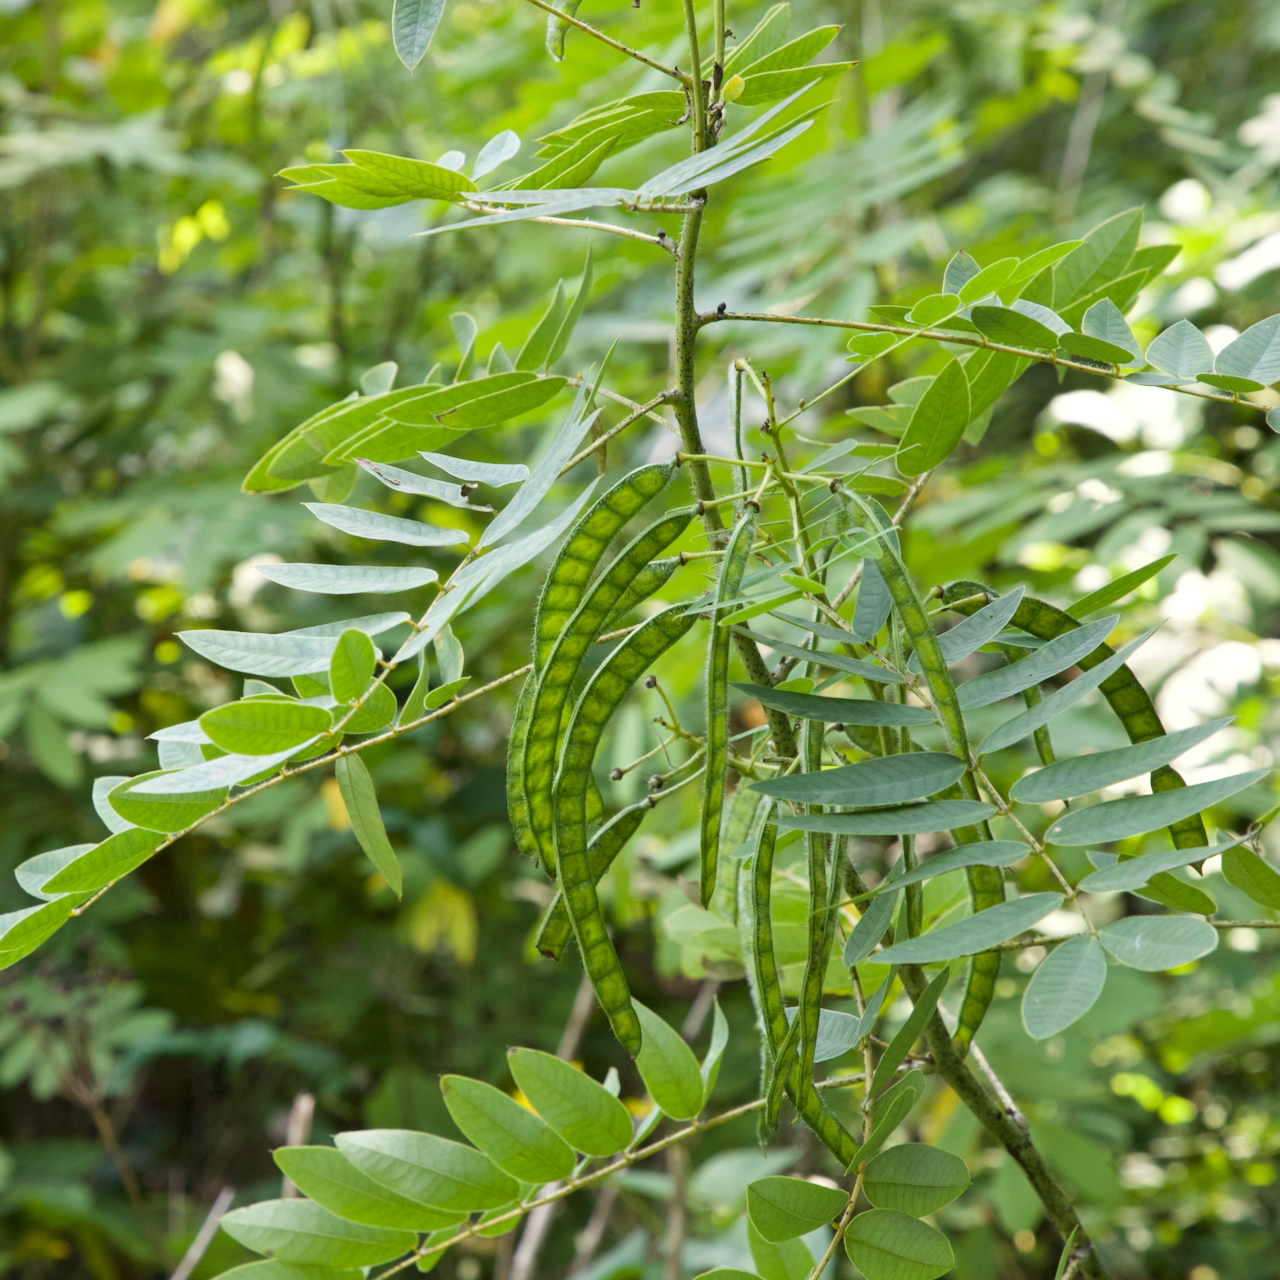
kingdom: Plantae
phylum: Tracheophyta
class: Magnoliopsida
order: Fabales
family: Fabaceae
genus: Senna
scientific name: Senna hebecarpa
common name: Wild senna
